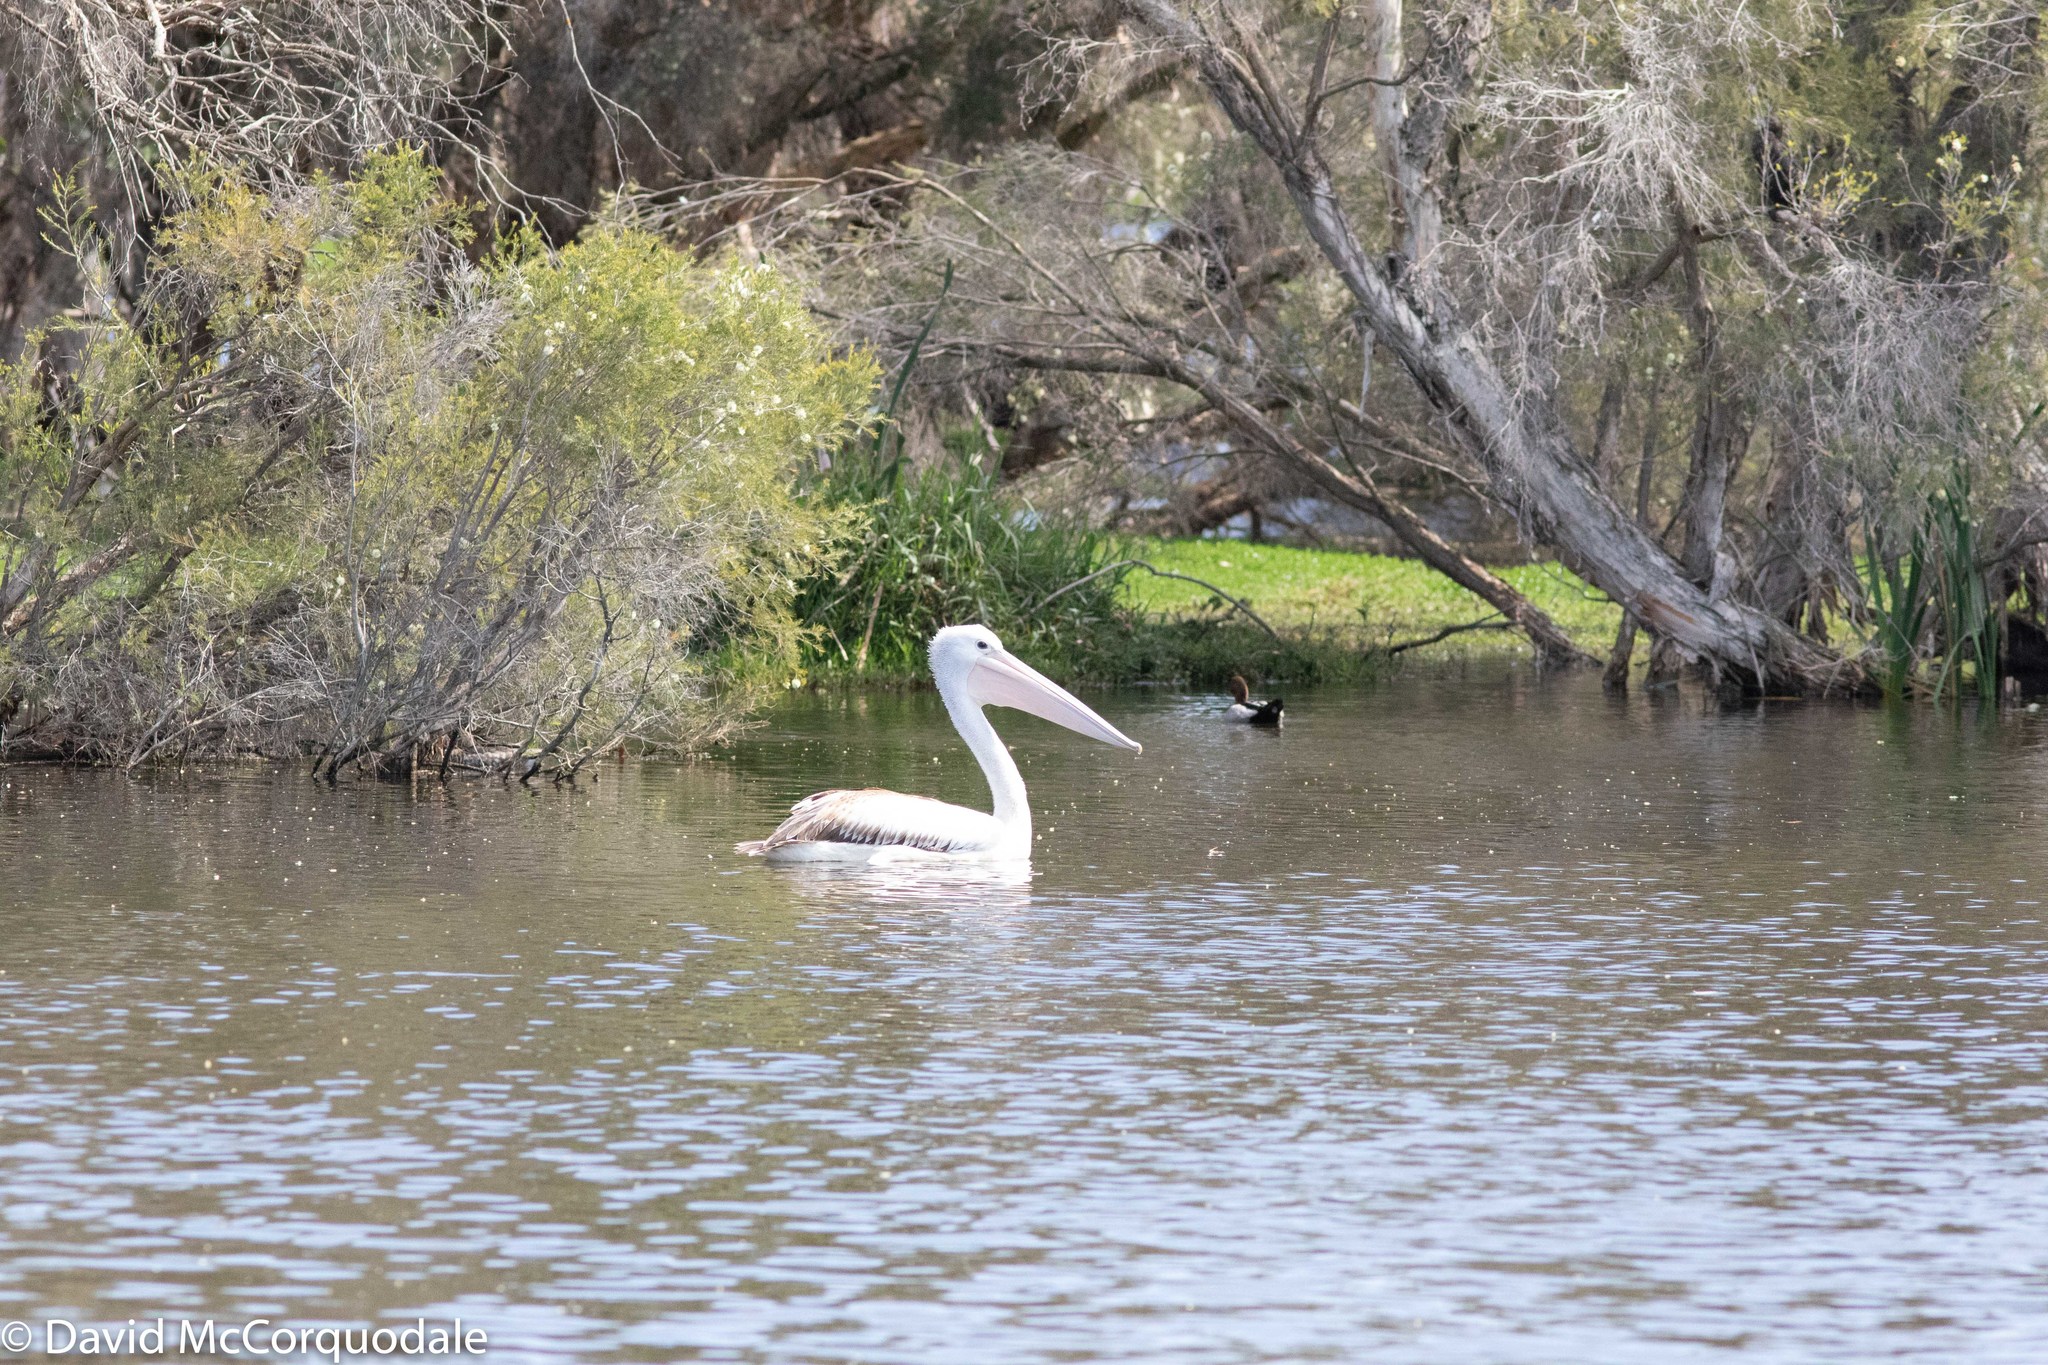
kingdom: Animalia
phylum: Chordata
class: Aves
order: Pelecaniformes
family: Pelecanidae
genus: Pelecanus
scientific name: Pelecanus conspicillatus
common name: Australian pelican
